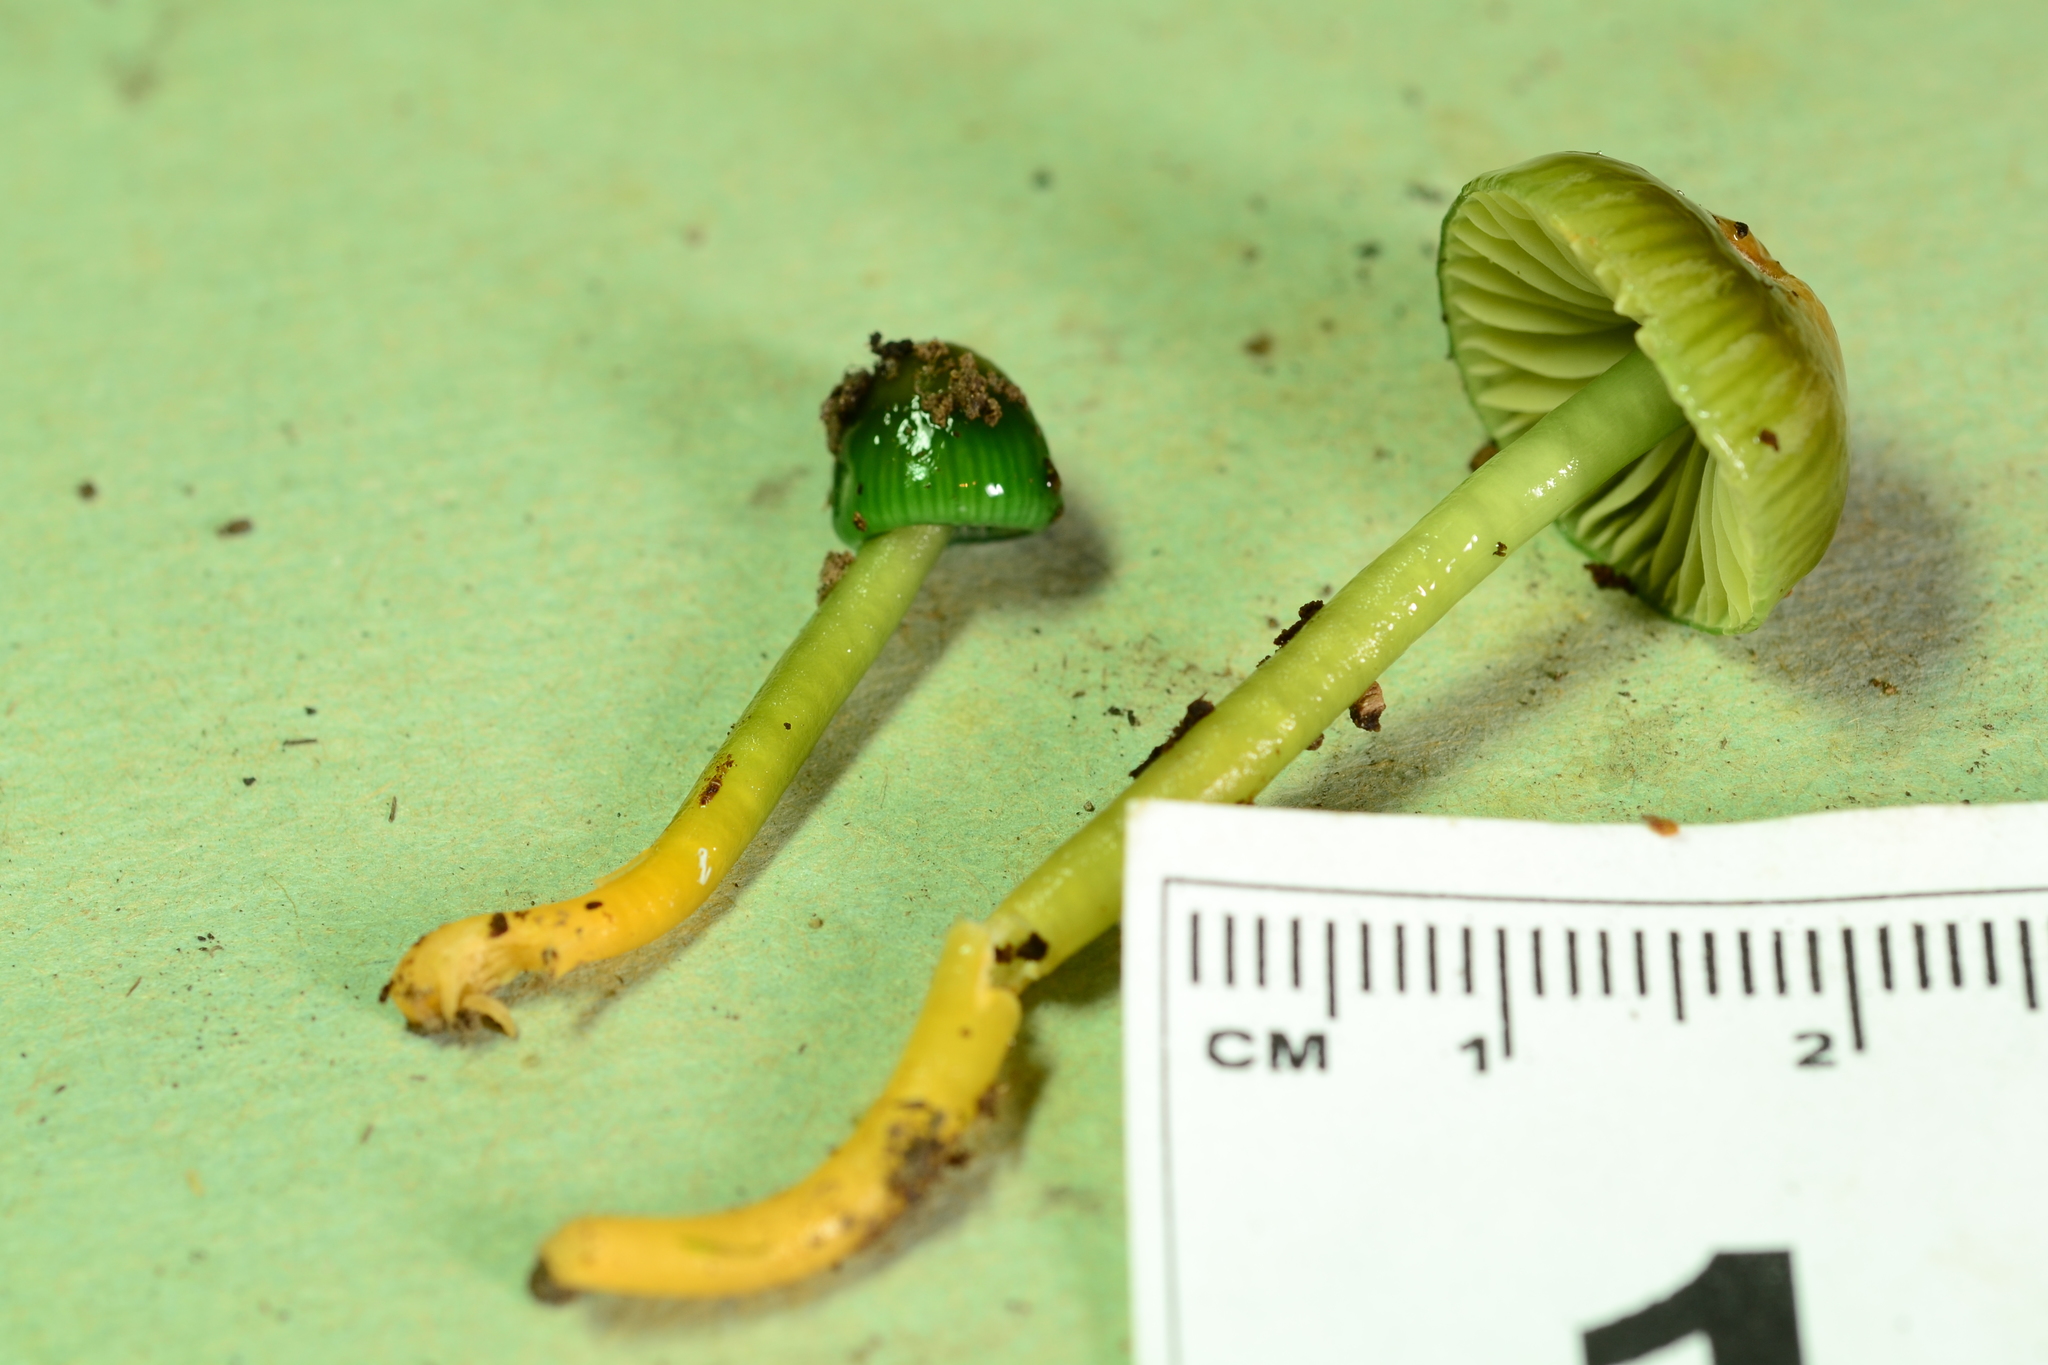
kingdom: Fungi
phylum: Basidiomycota
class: Agaricomycetes
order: Agaricales
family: Hygrophoraceae
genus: Gliophorus
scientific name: Gliophorus psittacinus
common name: Parrot wax-cap
